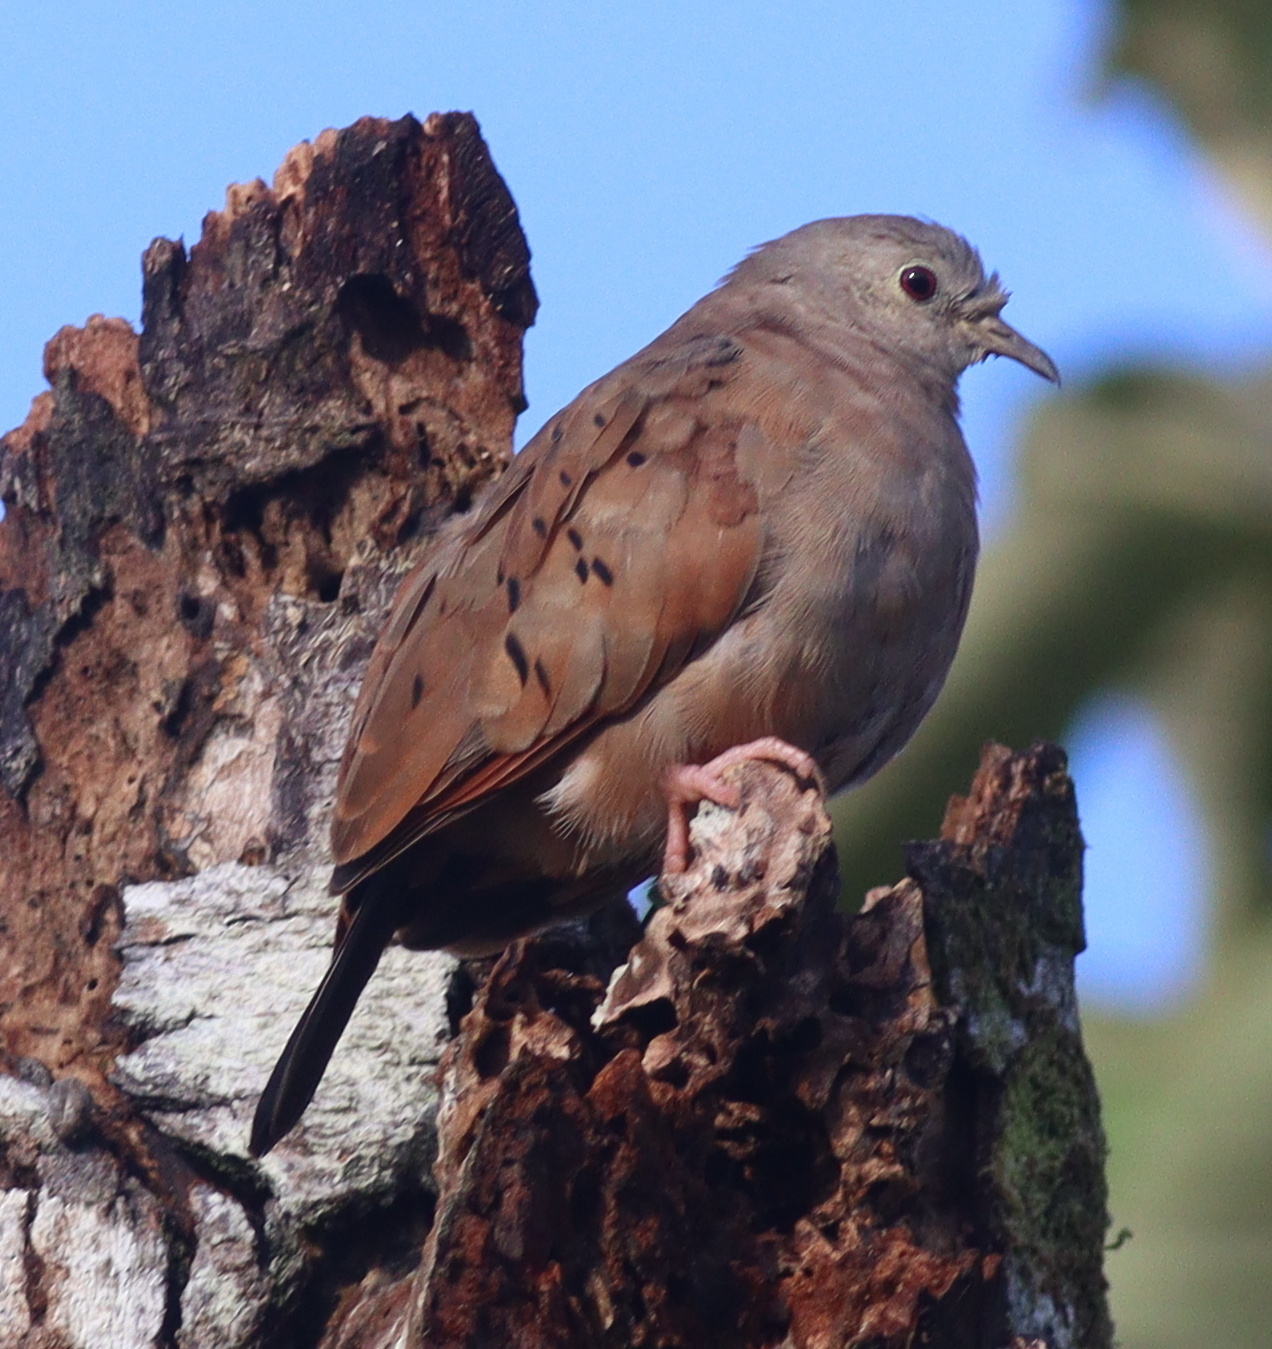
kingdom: Animalia
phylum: Chordata
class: Aves
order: Columbiformes
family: Columbidae
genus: Columbina
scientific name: Columbina talpacoti
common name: Ruddy ground dove
